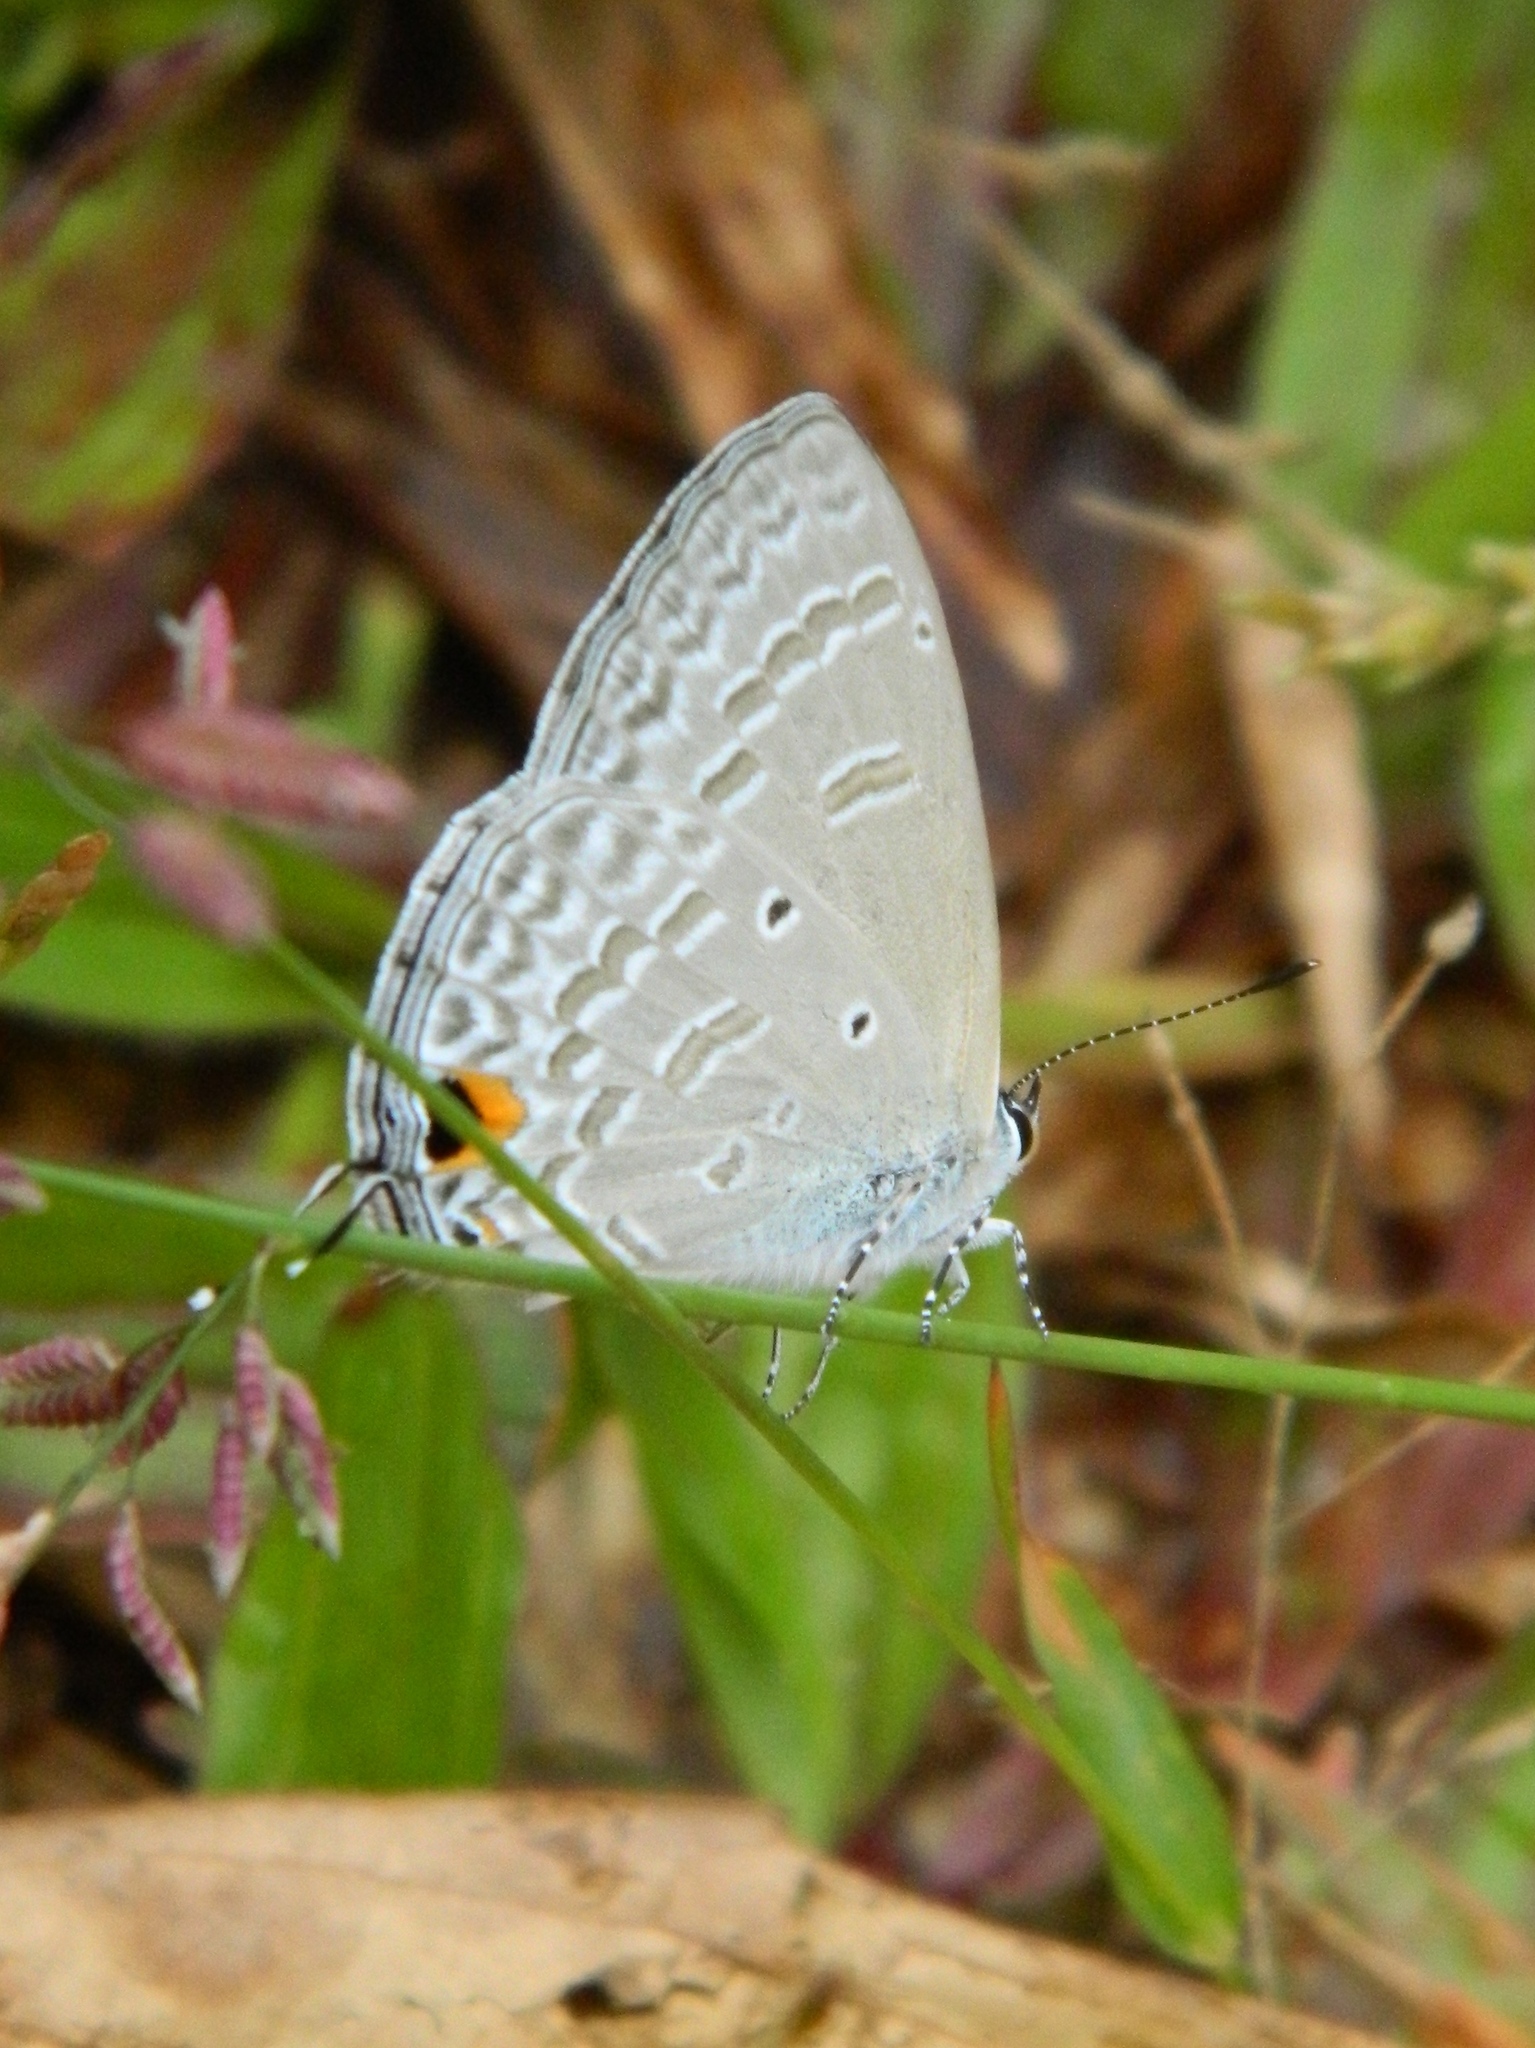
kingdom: Animalia
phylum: Arthropoda
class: Insecta
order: Lepidoptera
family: Lycaenidae
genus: Catochrysops
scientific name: Catochrysops strabo
